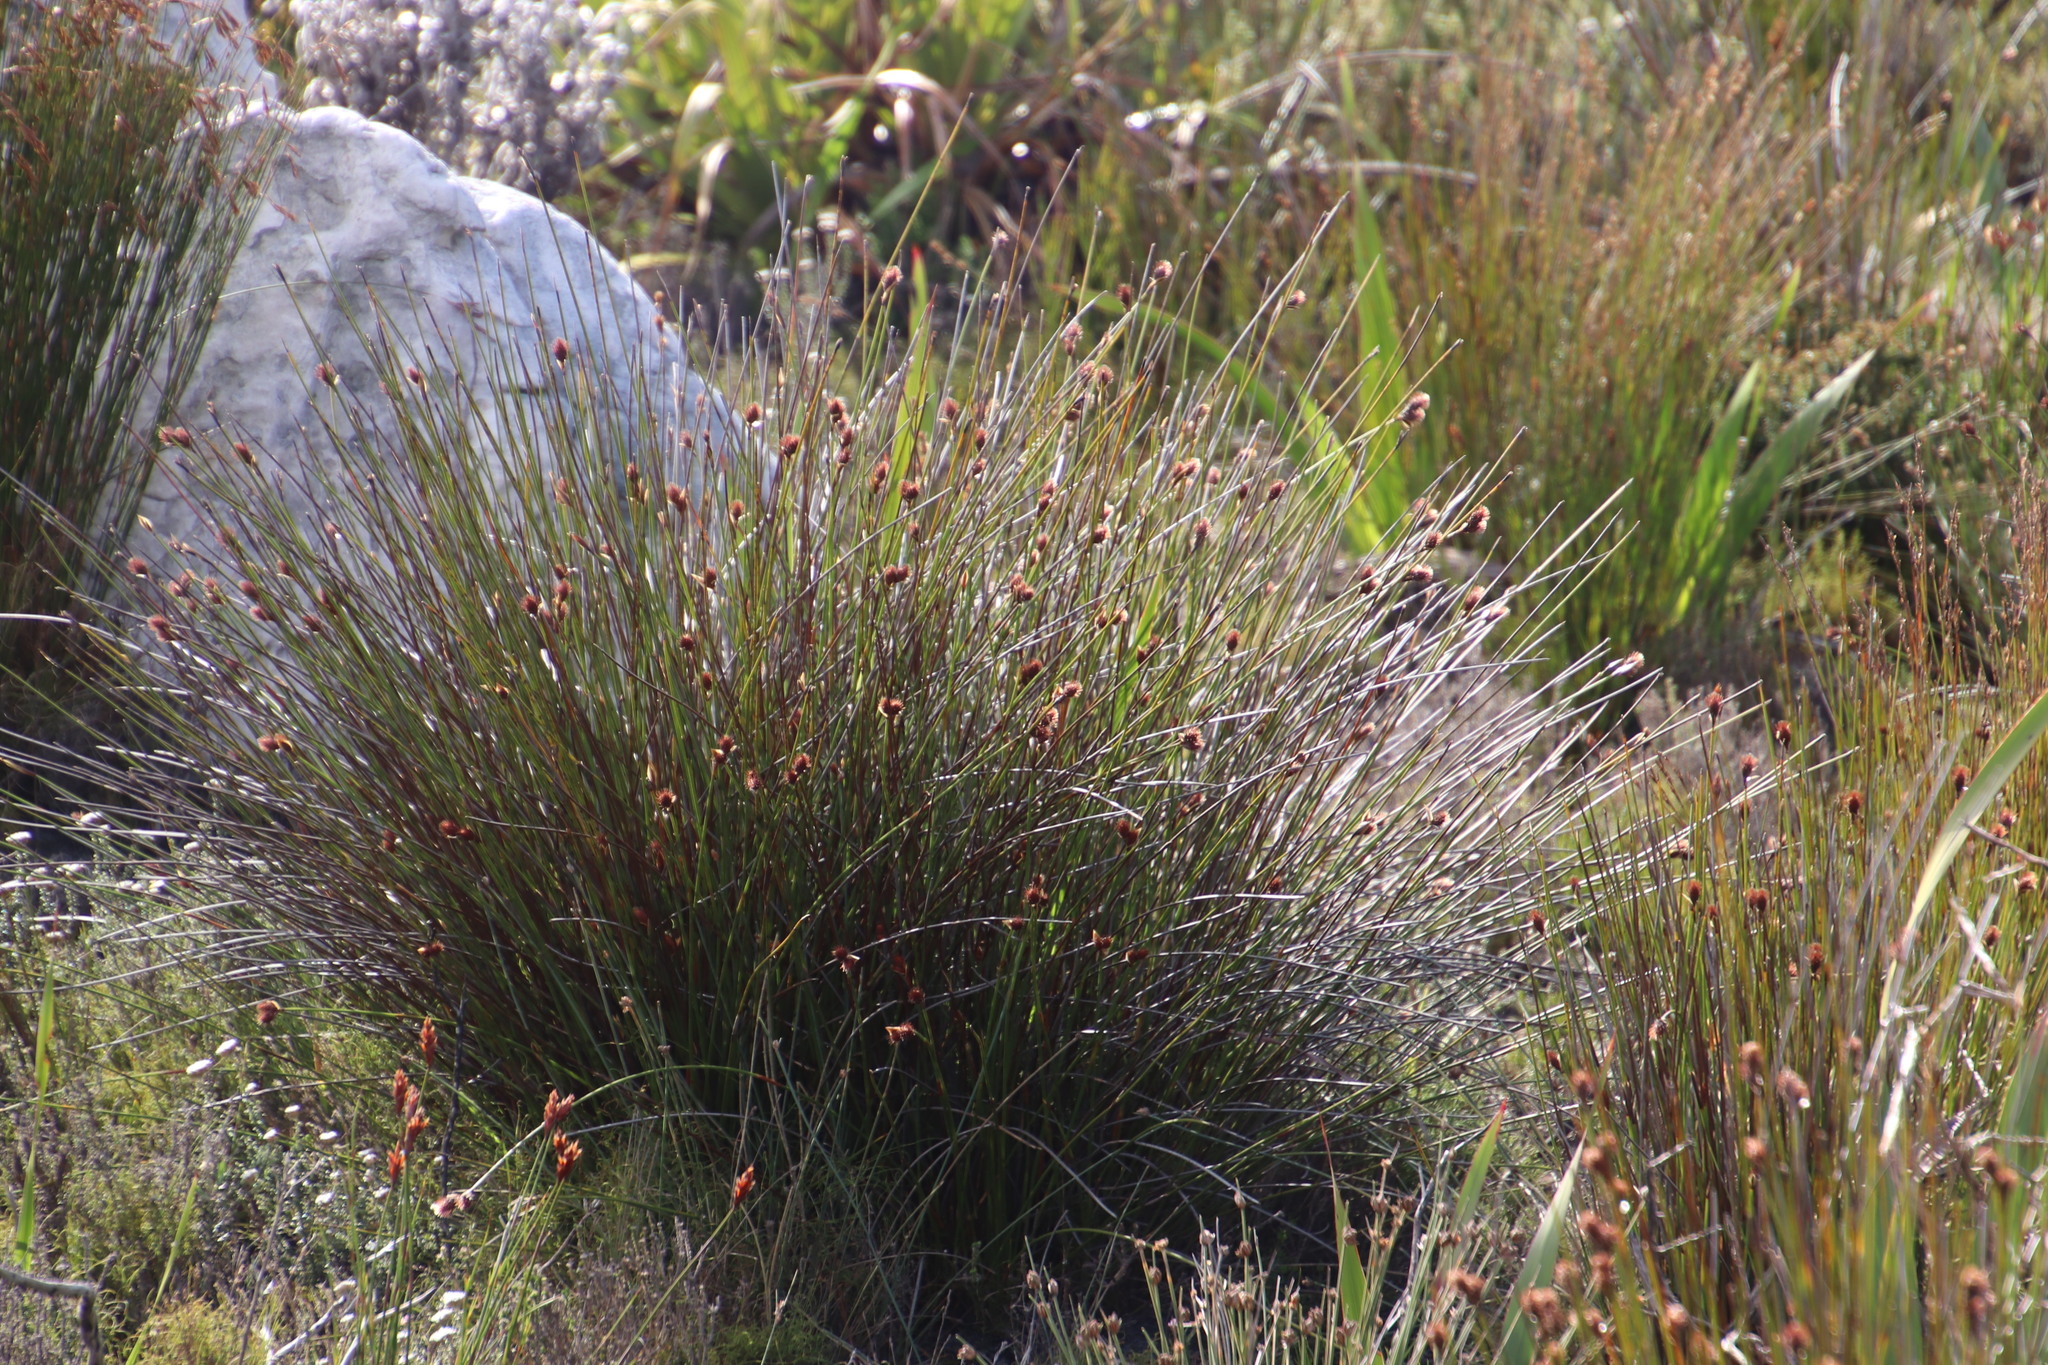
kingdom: Plantae
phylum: Tracheophyta
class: Liliopsida
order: Poales
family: Restionaceae
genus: Hypodiscus
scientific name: Hypodiscus aristatus
